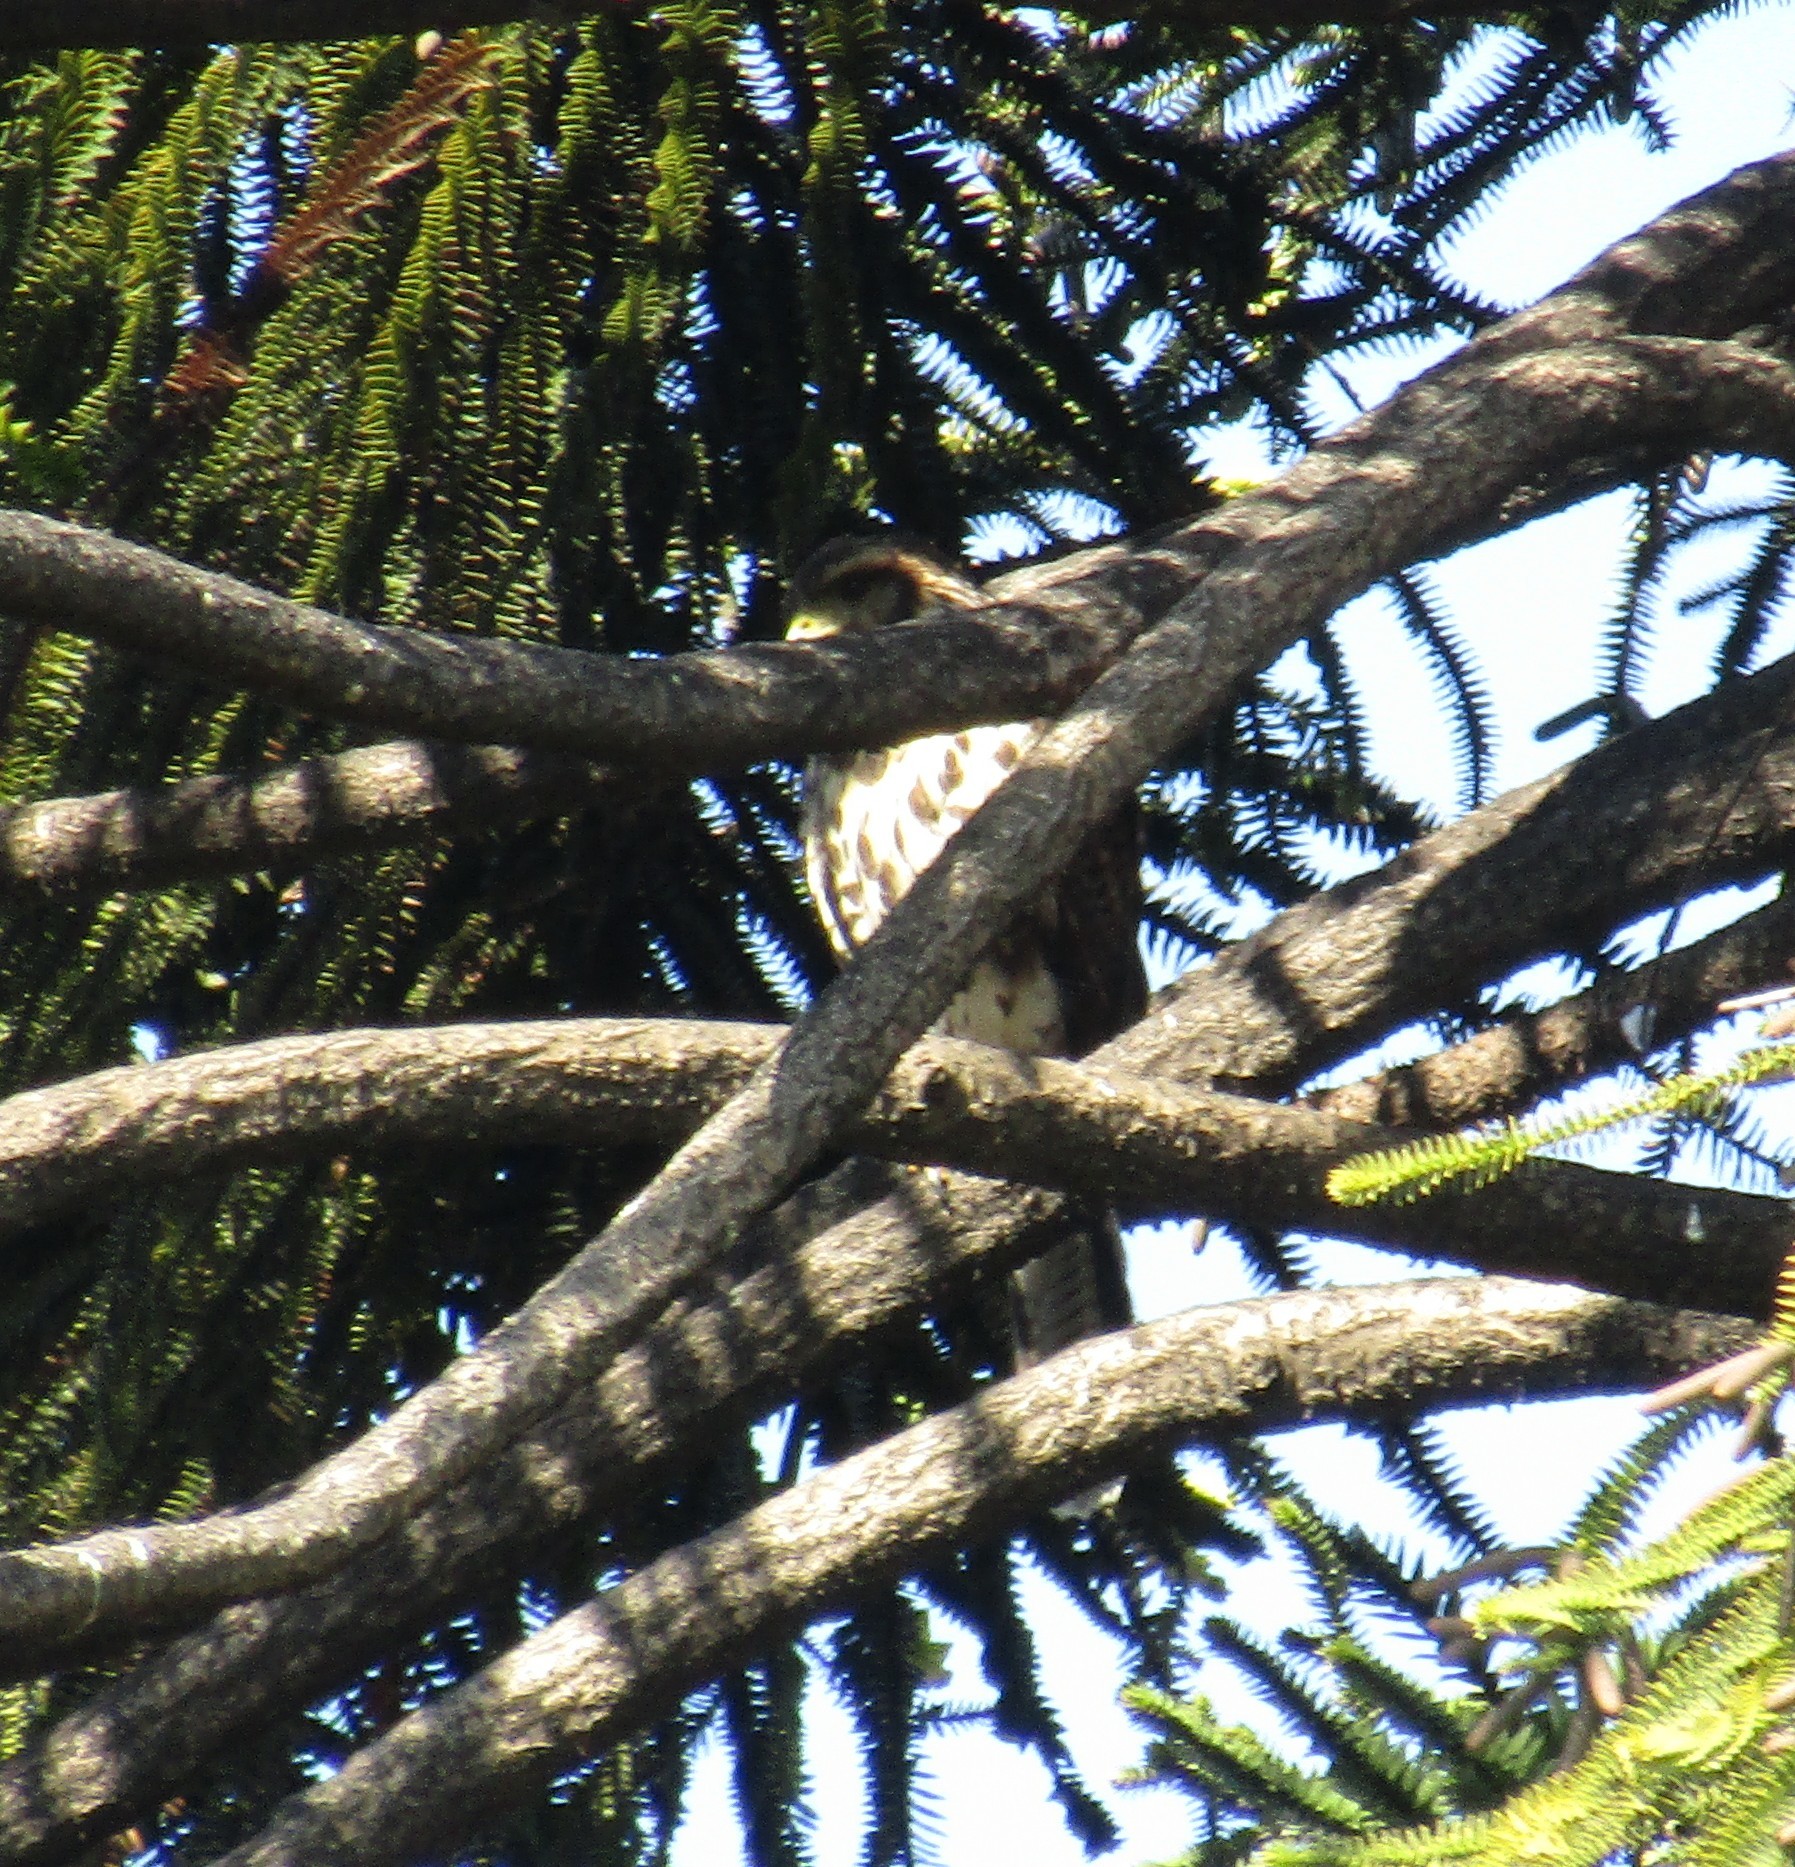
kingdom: Animalia
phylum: Chordata
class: Aves
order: Accipitriformes
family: Accipitridae
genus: Parabuteo
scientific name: Parabuteo unicinctus
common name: Harris's hawk
